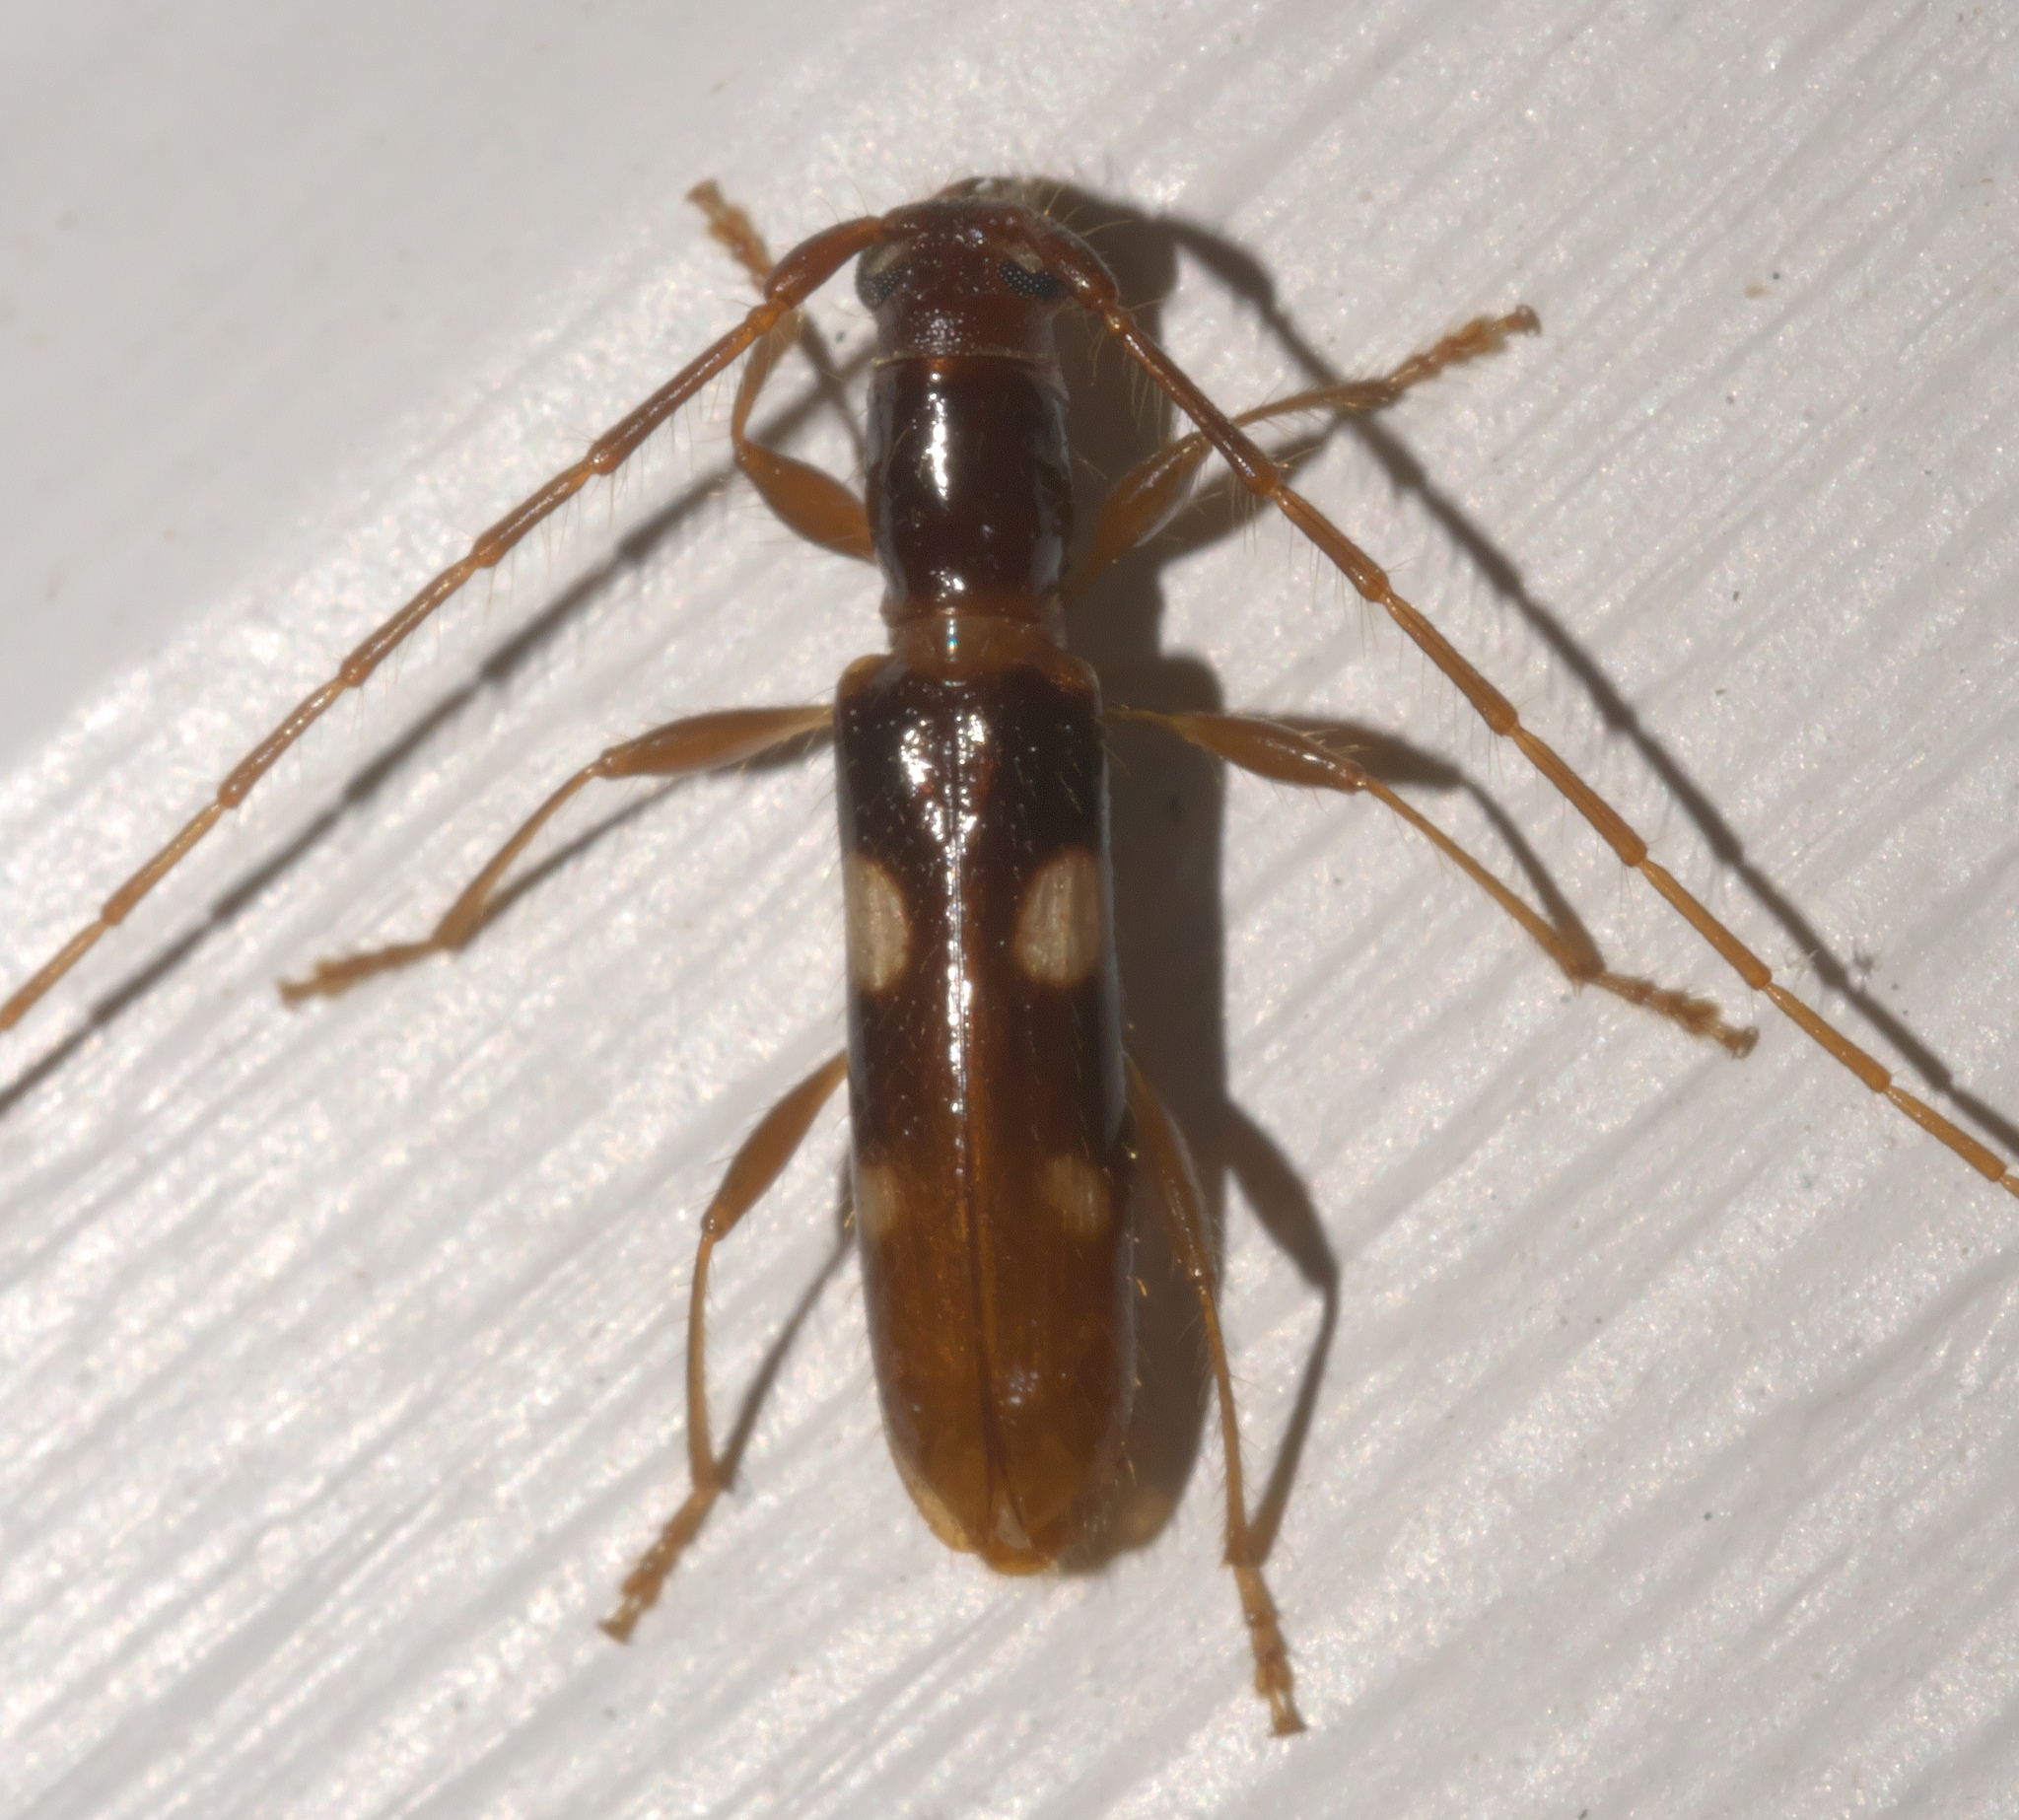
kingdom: Animalia
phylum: Arthropoda
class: Insecta
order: Coleoptera
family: Cerambycidae
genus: Heterachthes
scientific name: Heterachthes quadrimaculatus
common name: Four-spotted hickory borer
